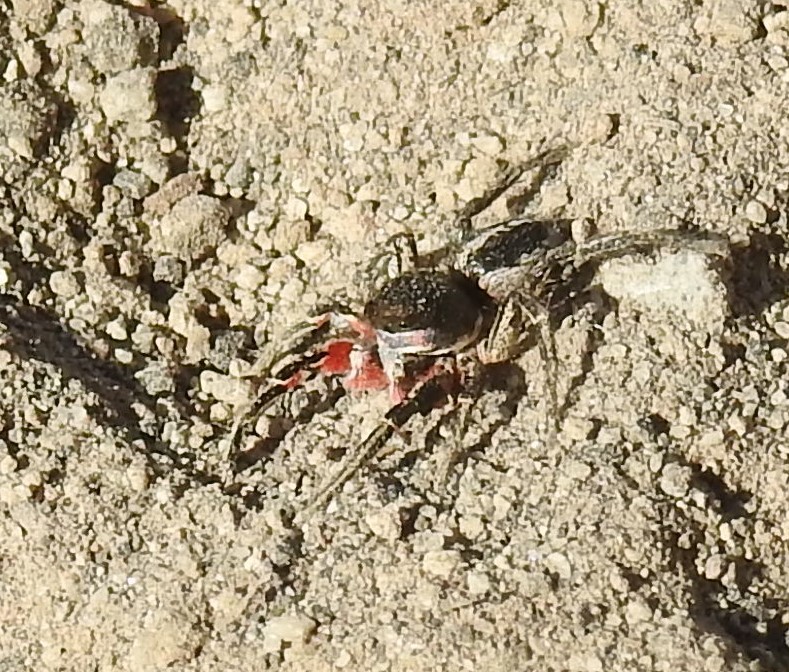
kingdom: Animalia
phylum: Arthropoda
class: Arachnida
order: Araneae
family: Salticidae
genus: Habronattus
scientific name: Habronattus americanus
